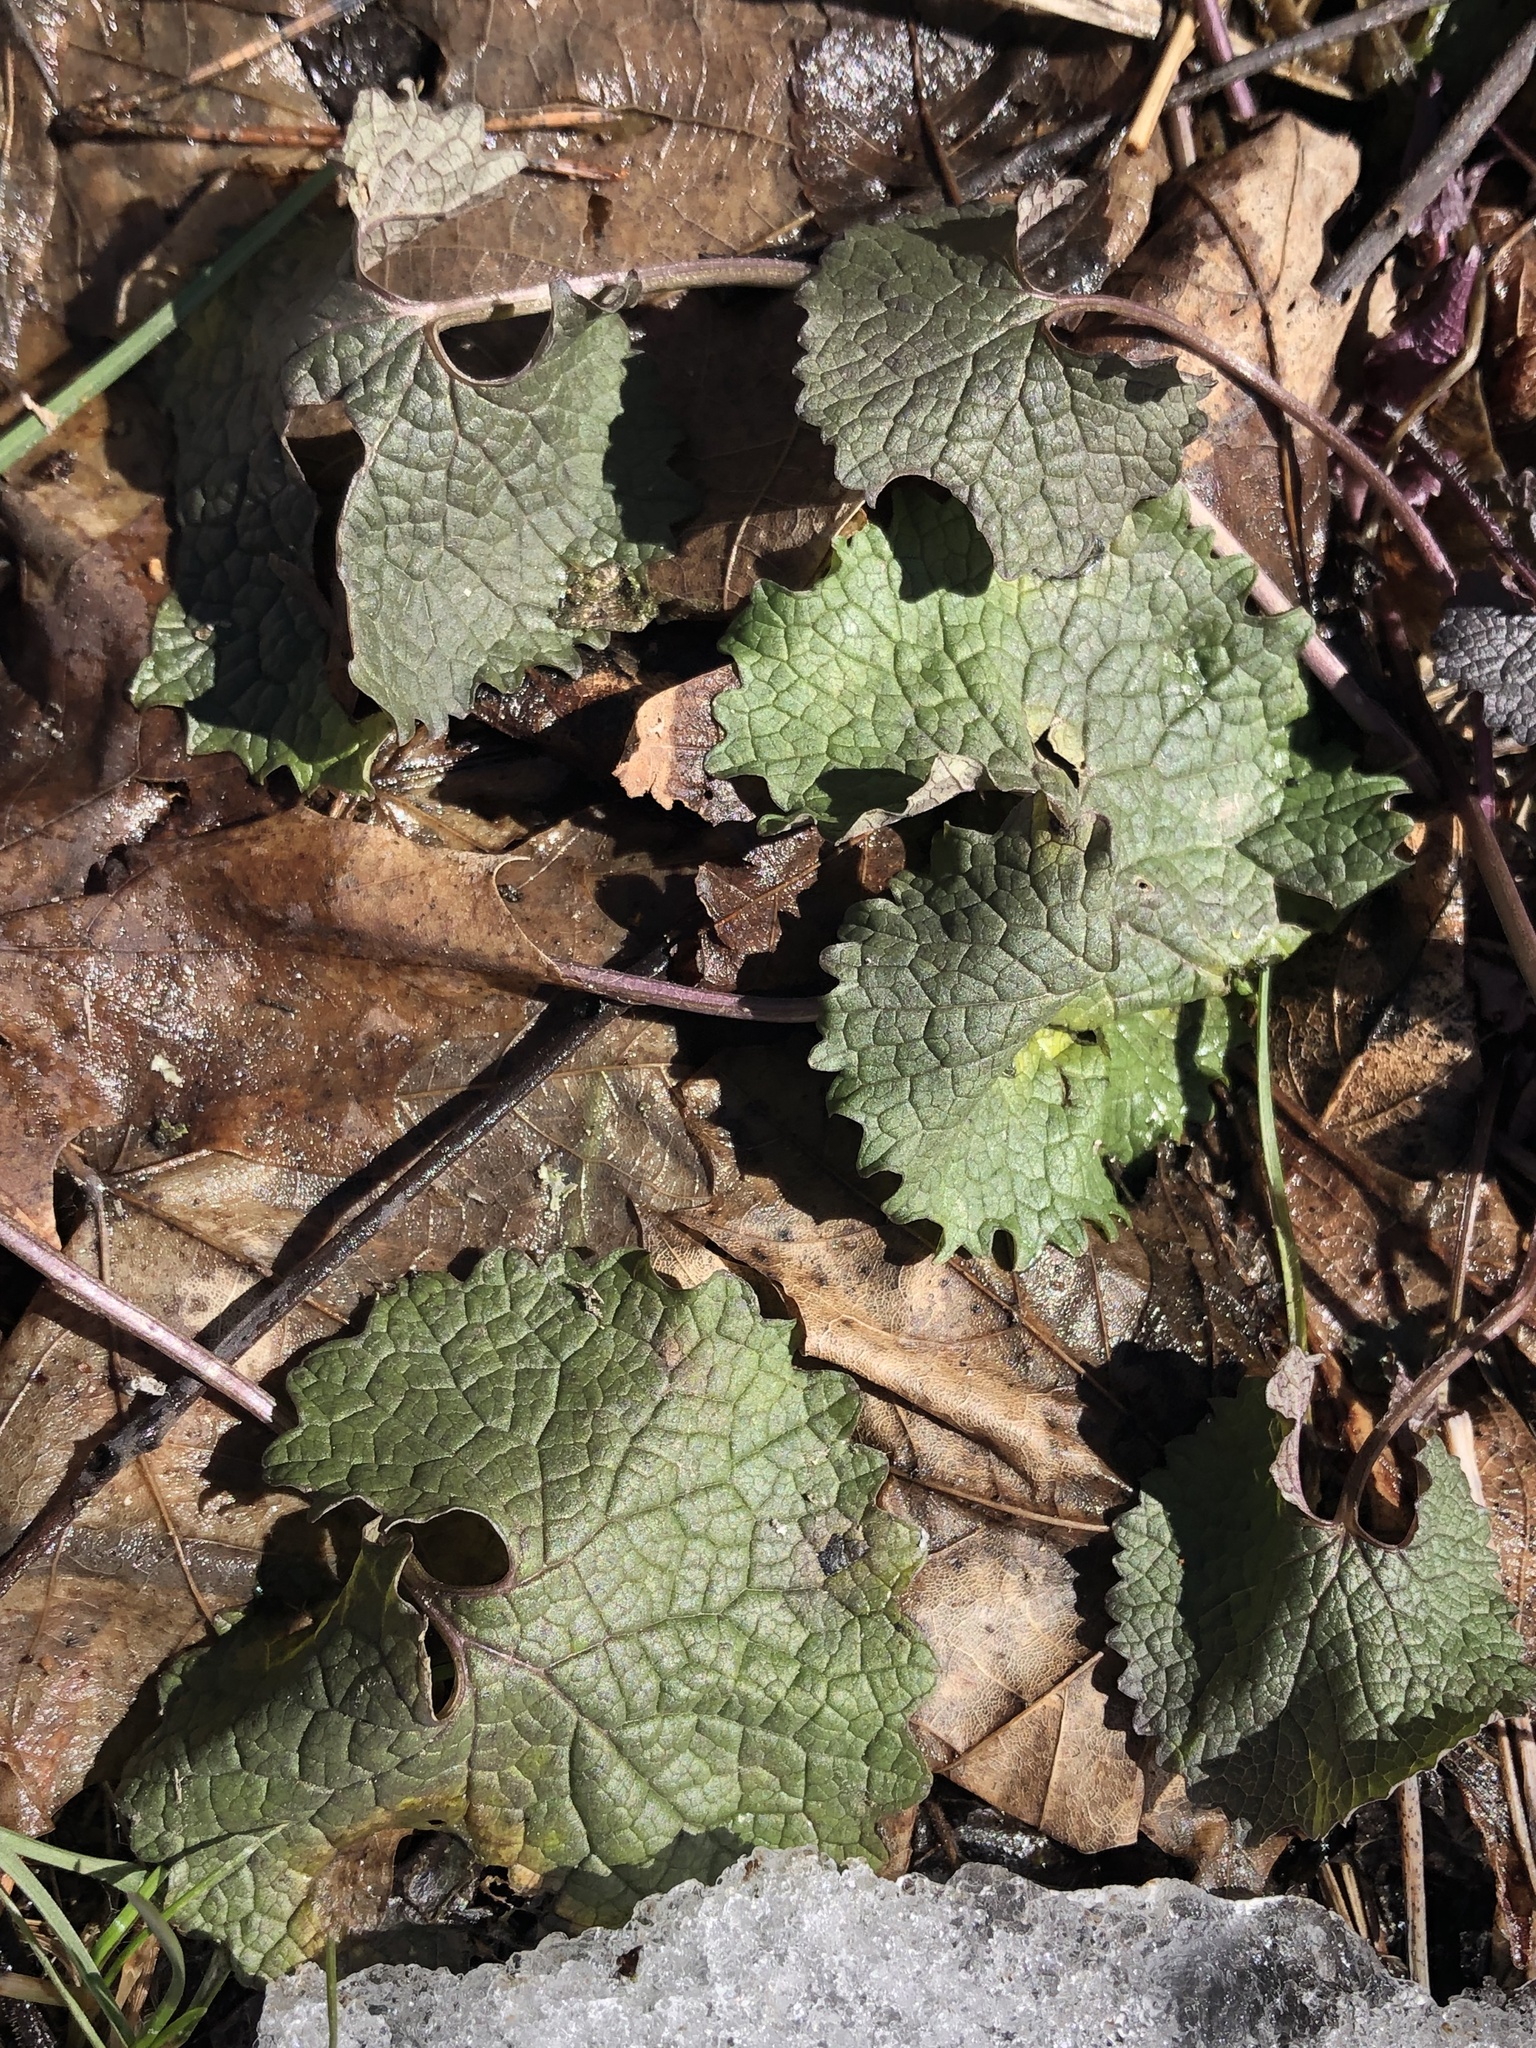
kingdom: Plantae
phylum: Tracheophyta
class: Magnoliopsida
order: Brassicales
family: Brassicaceae
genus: Alliaria
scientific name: Alliaria petiolata
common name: Garlic mustard
